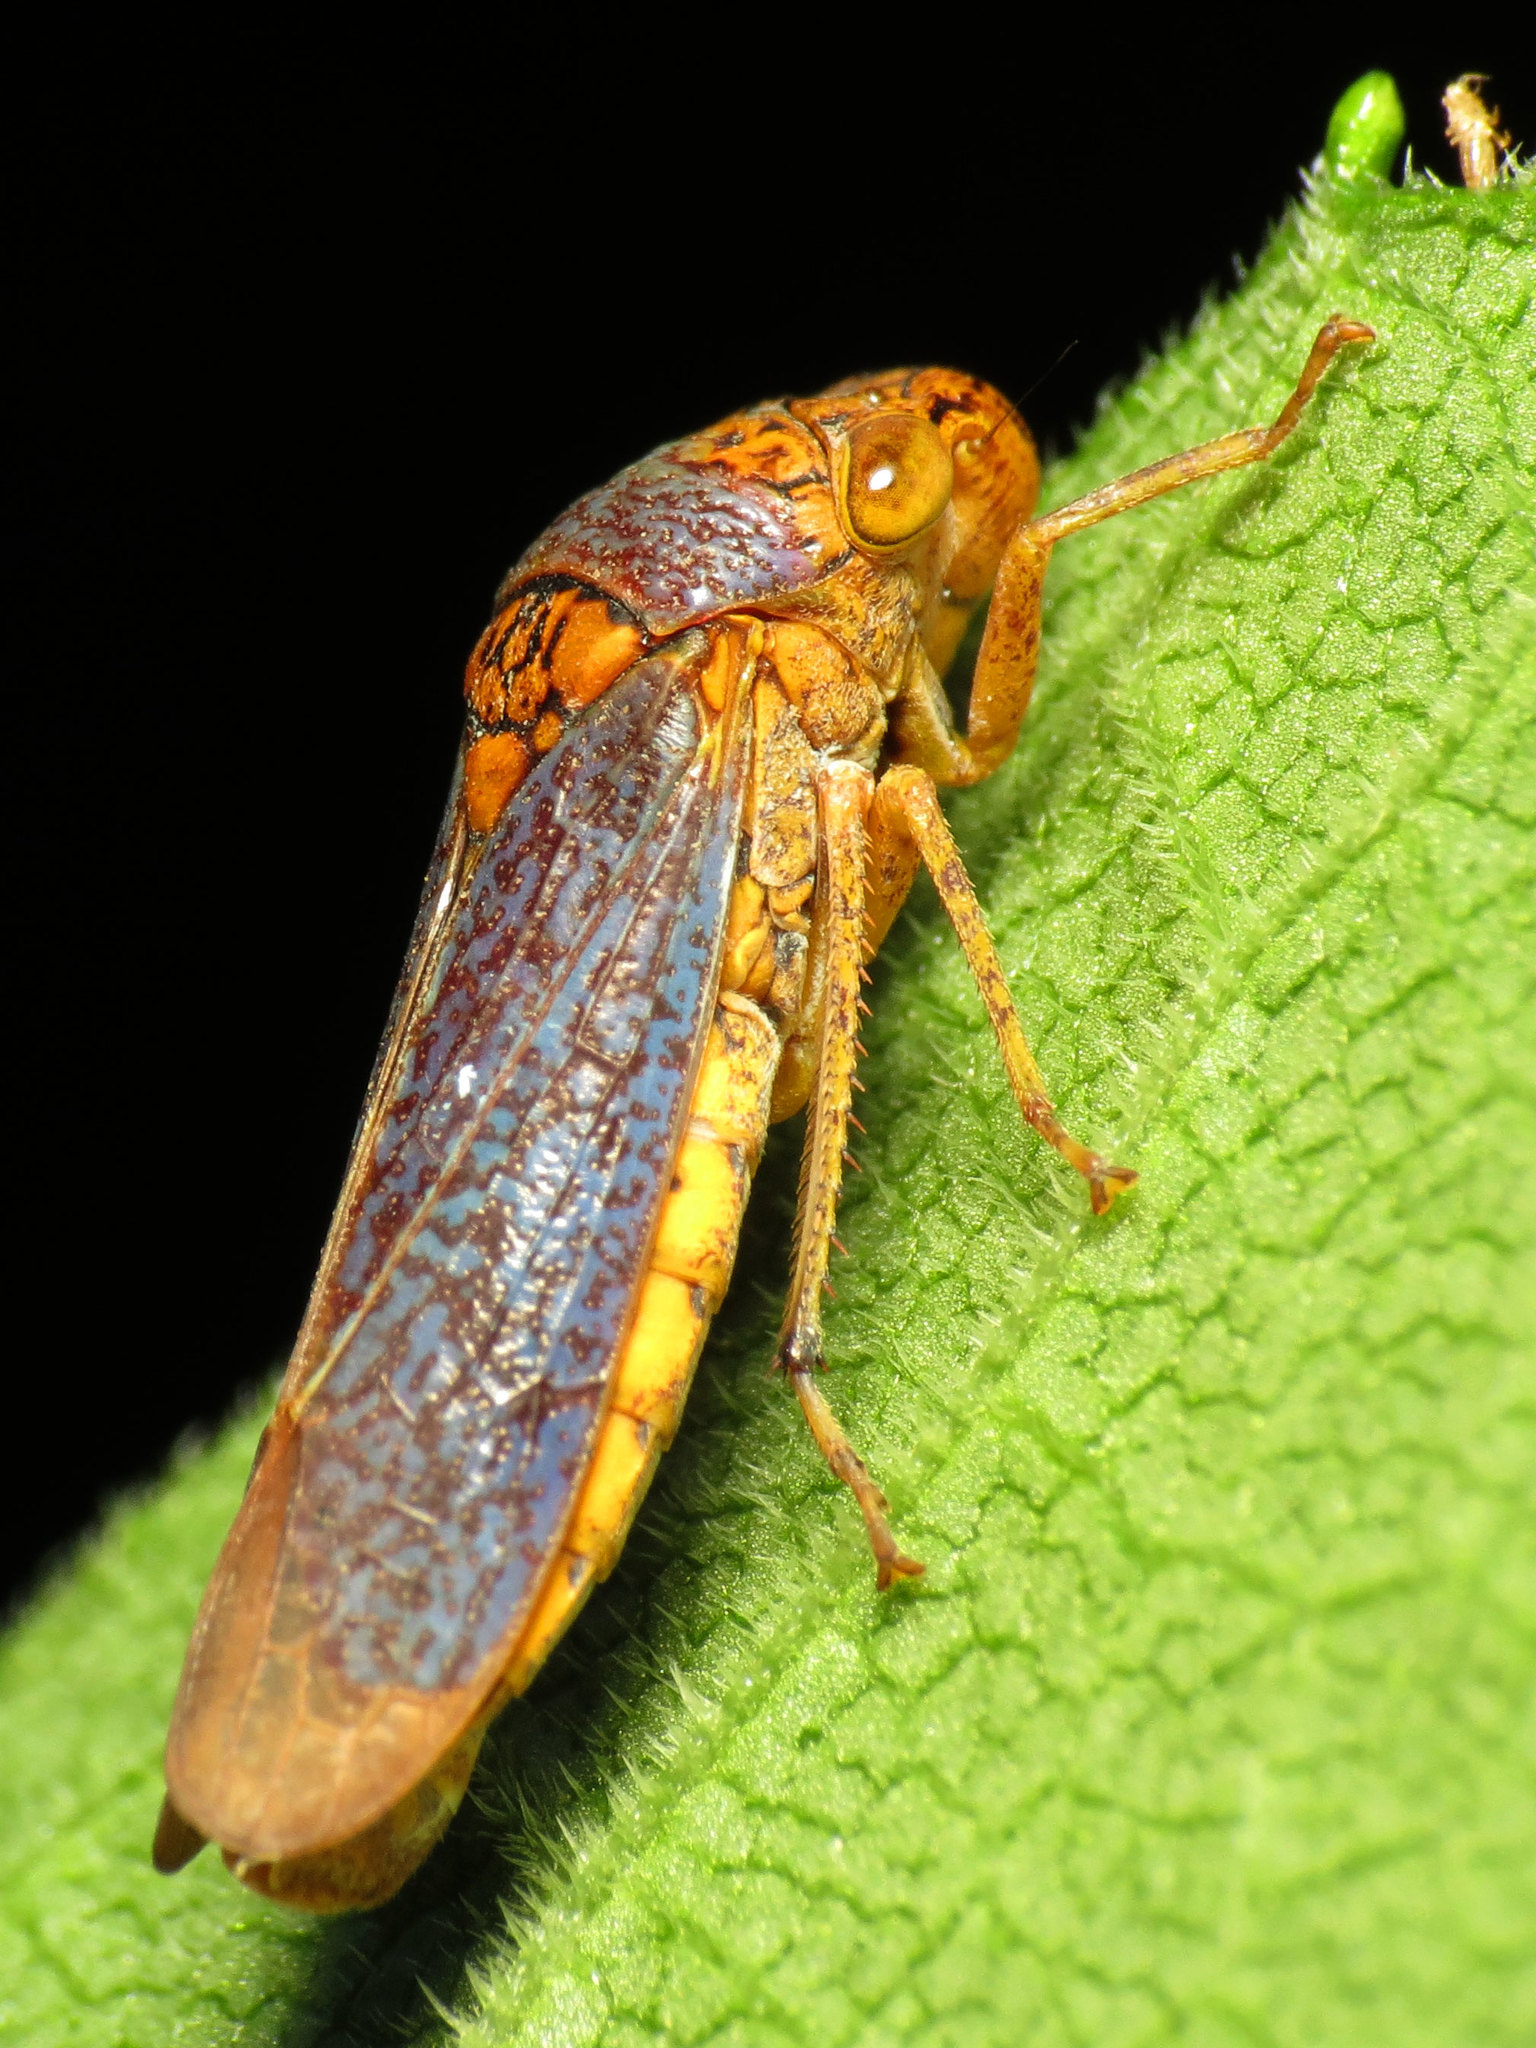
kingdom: Animalia
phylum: Arthropoda
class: Insecta
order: Hemiptera
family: Cicadellidae
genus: Oncometopia
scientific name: Oncometopia orbona
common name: Broad-headed sharpshooter
